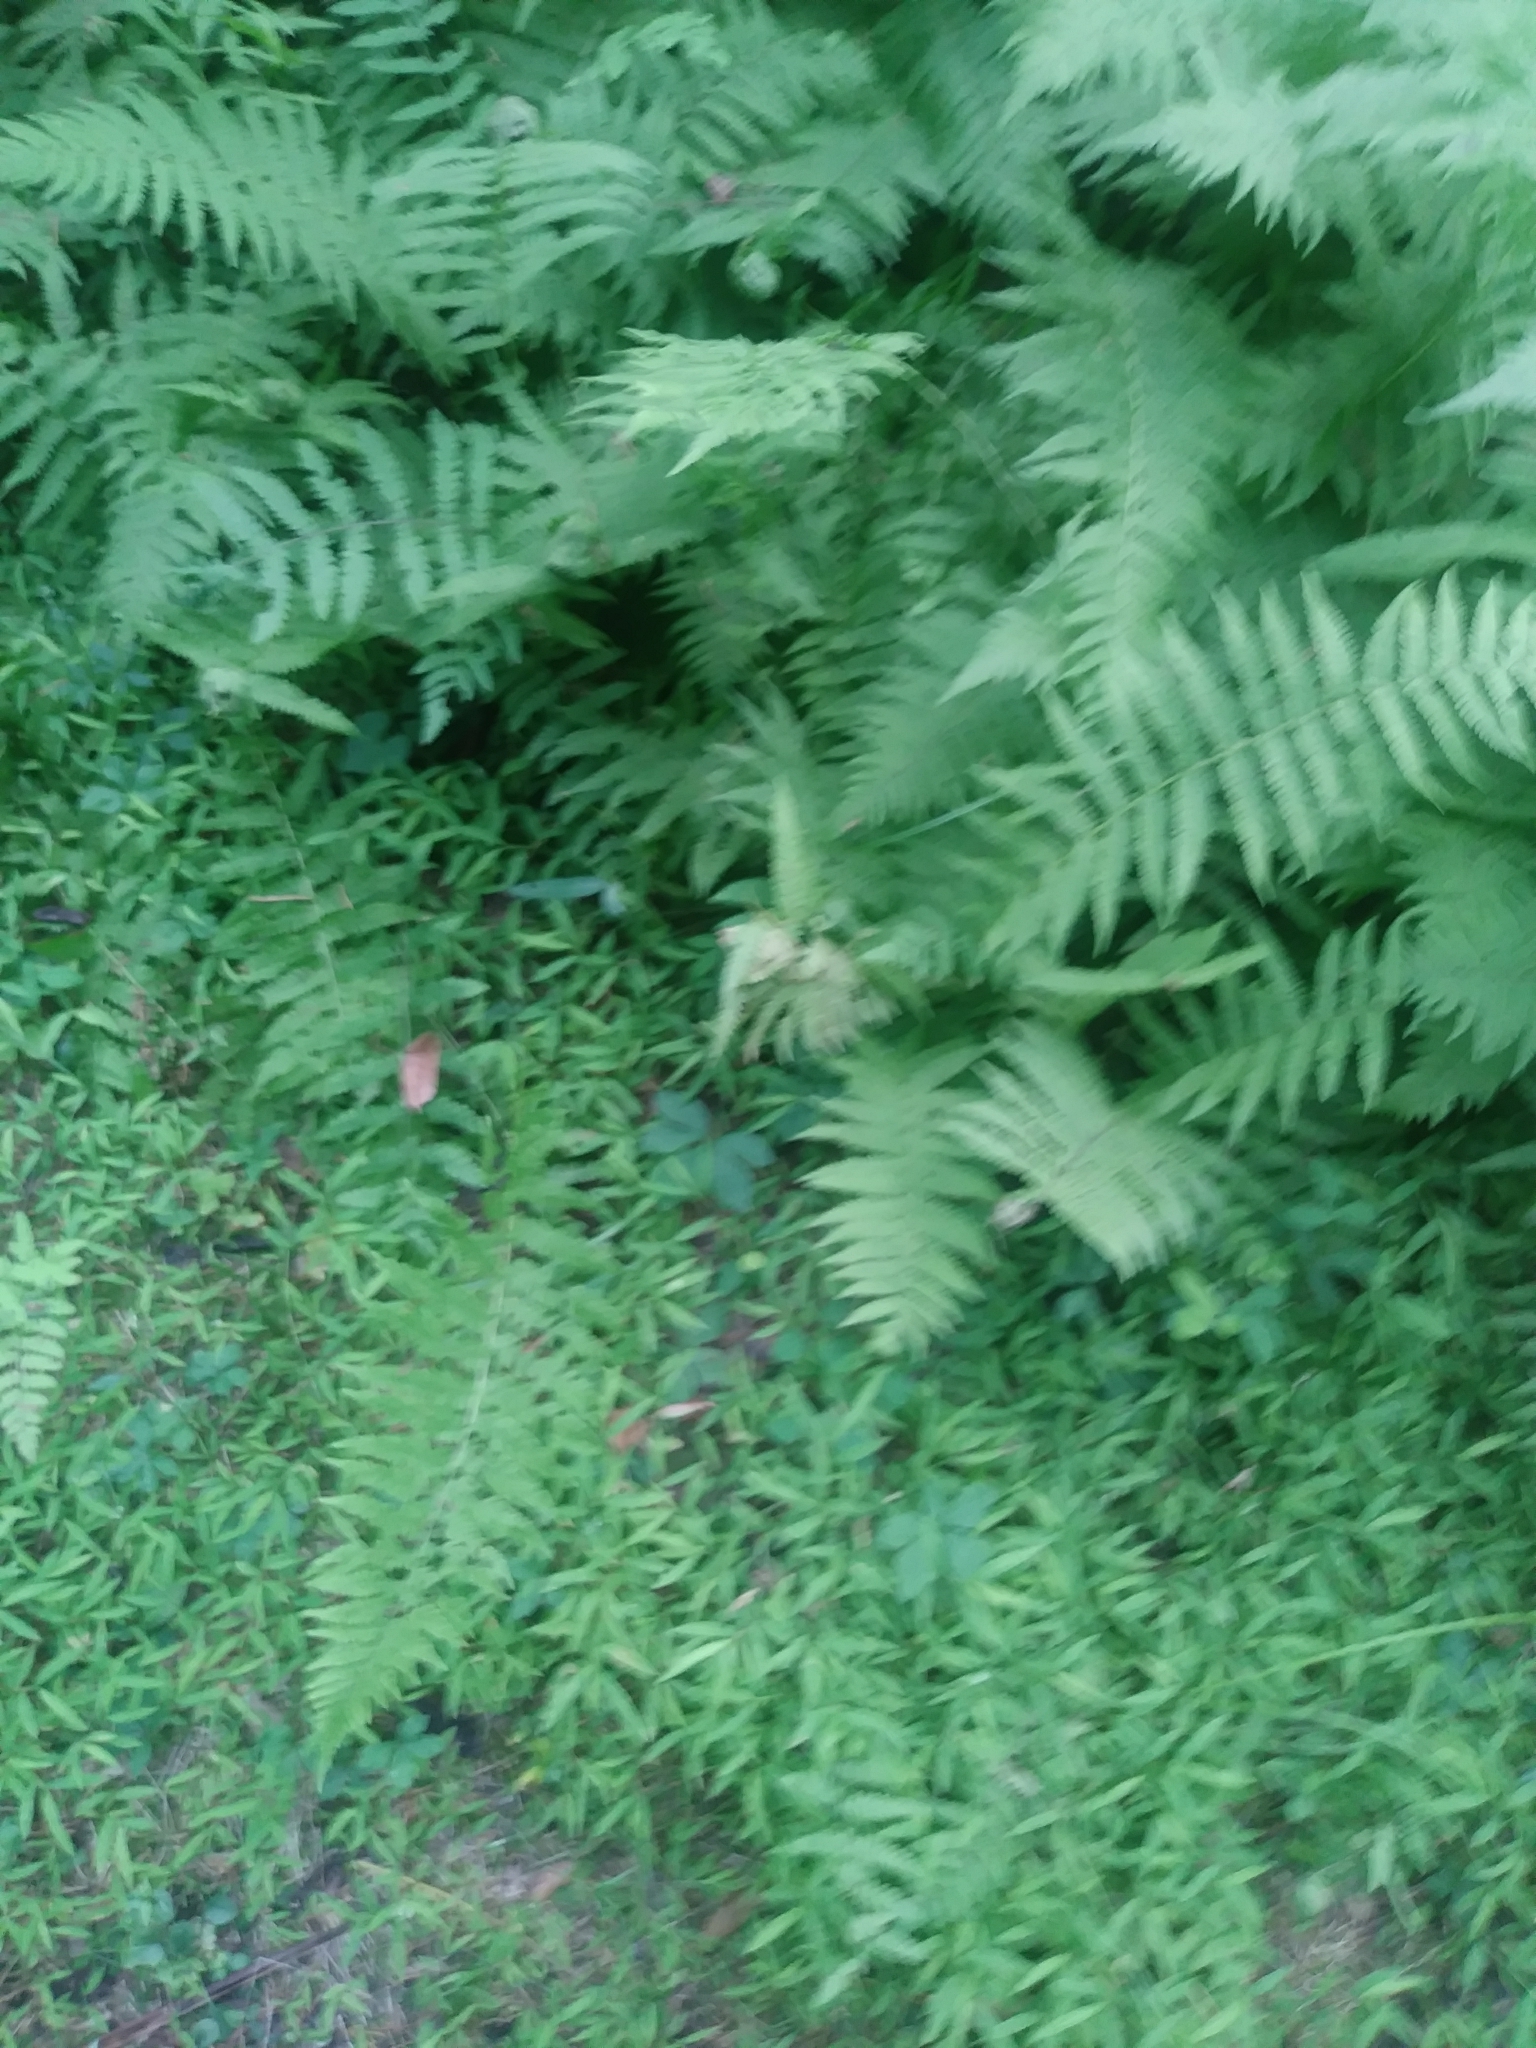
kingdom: Plantae
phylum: Tracheophyta
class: Polypodiopsida
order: Polypodiales
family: Thelypteridaceae
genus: Amauropelta
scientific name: Amauropelta noveboracensis
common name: New york fern
